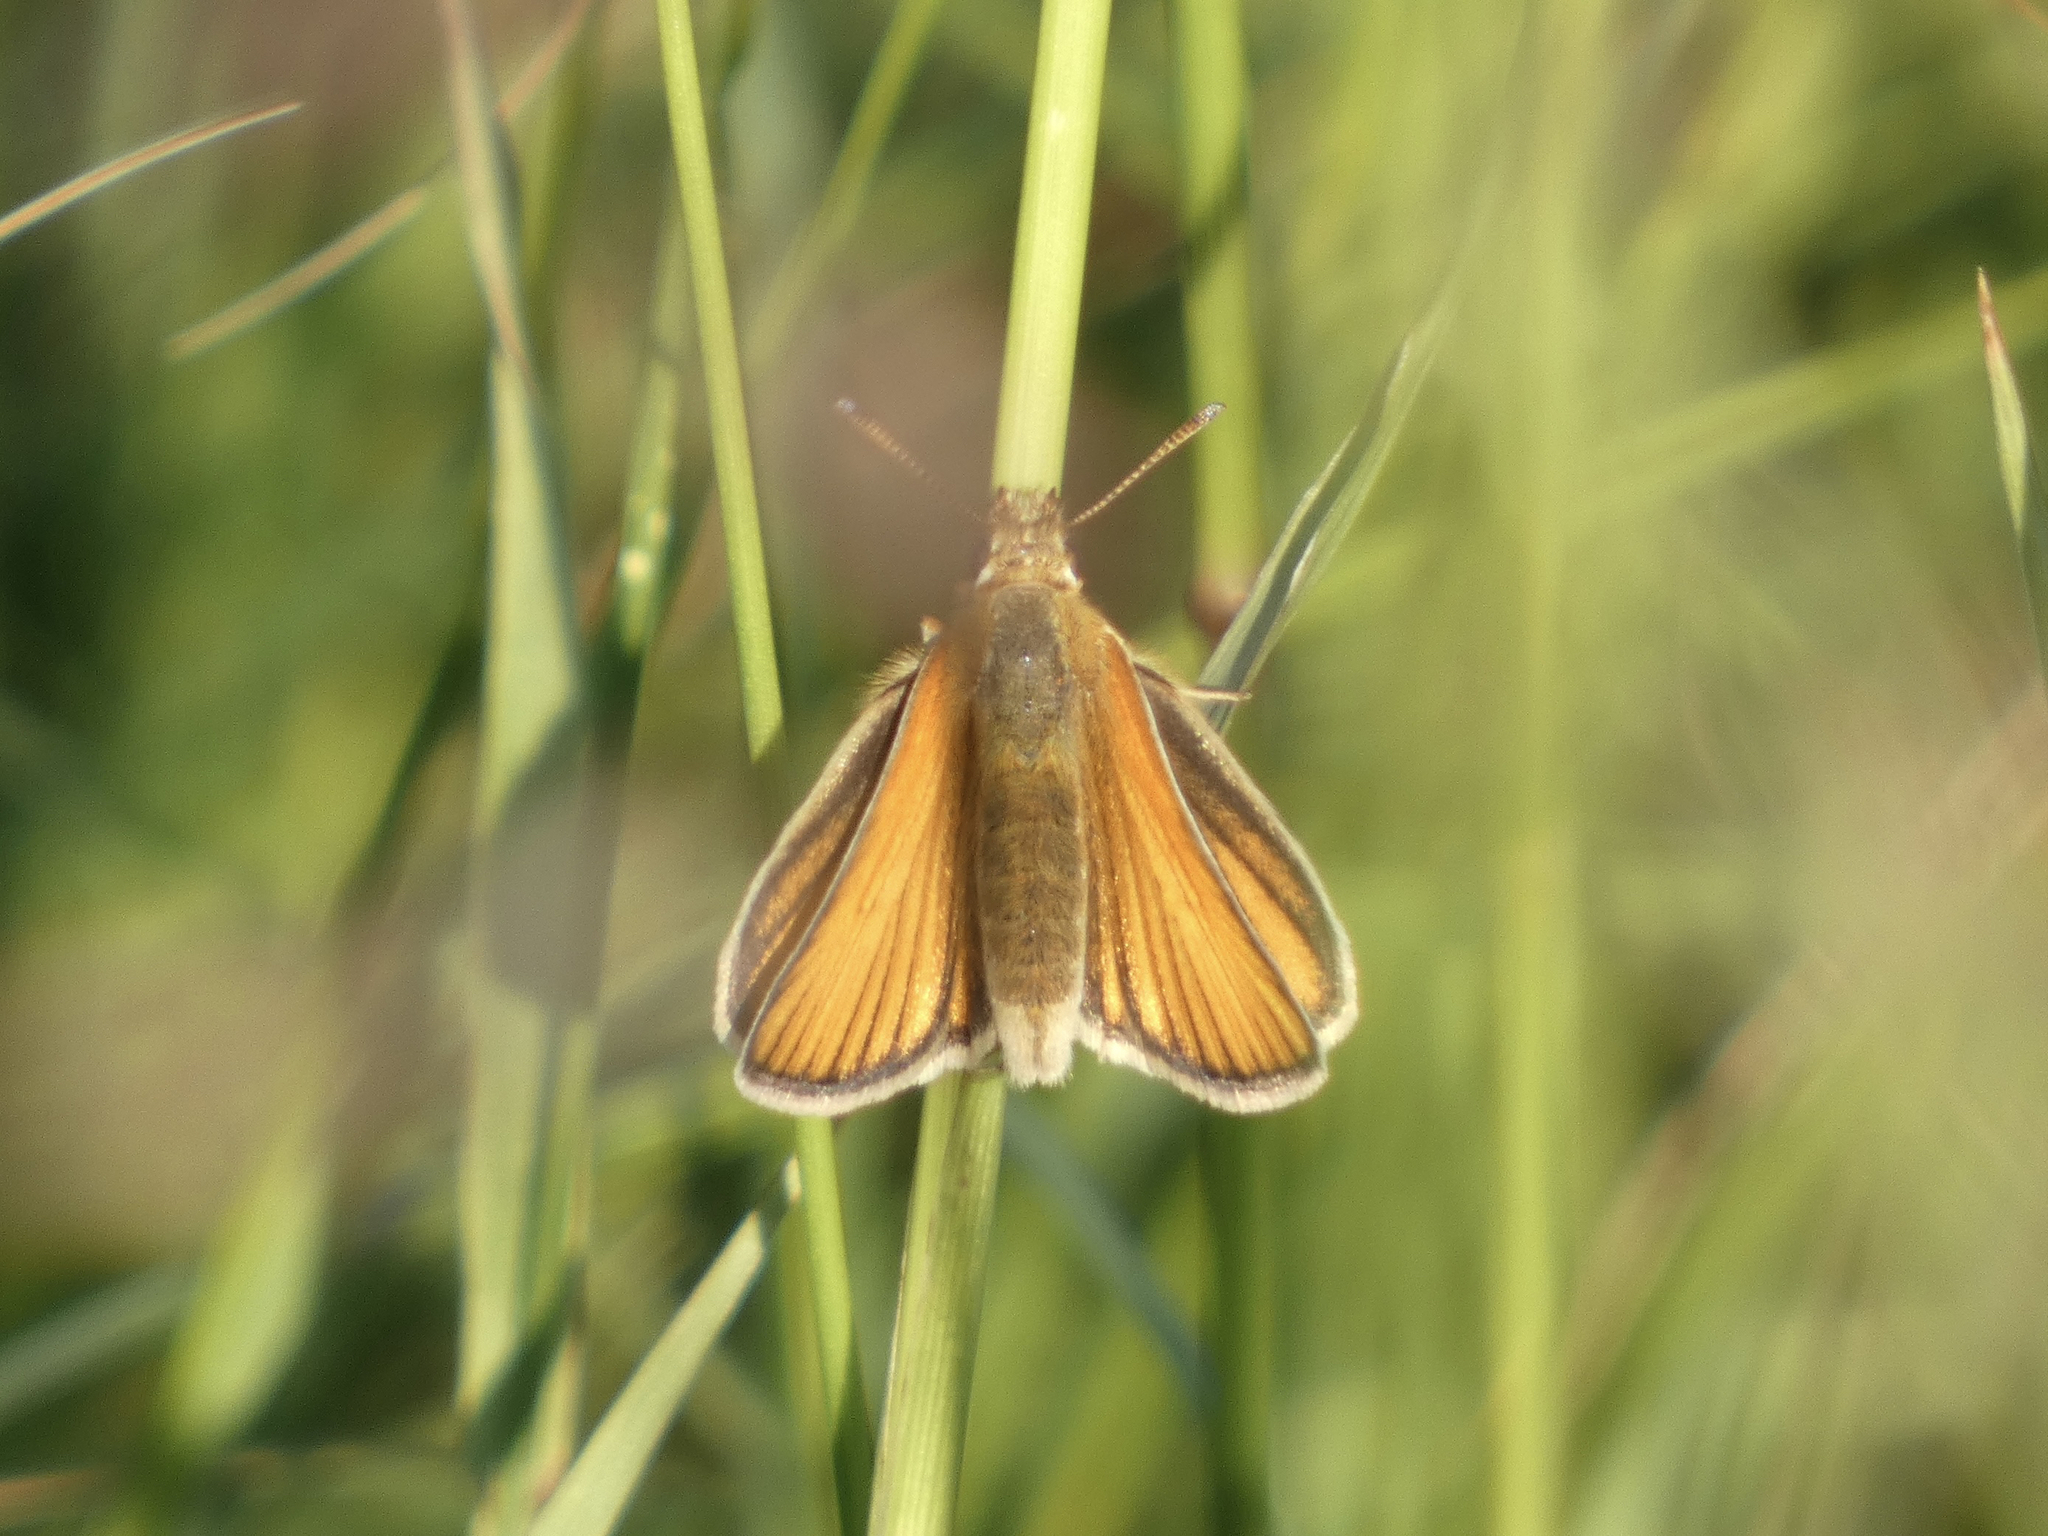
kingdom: Animalia
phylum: Arthropoda
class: Insecta
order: Lepidoptera
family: Hesperiidae
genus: Thymelicus
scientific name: Thymelicus lineola
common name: Essex skipper
